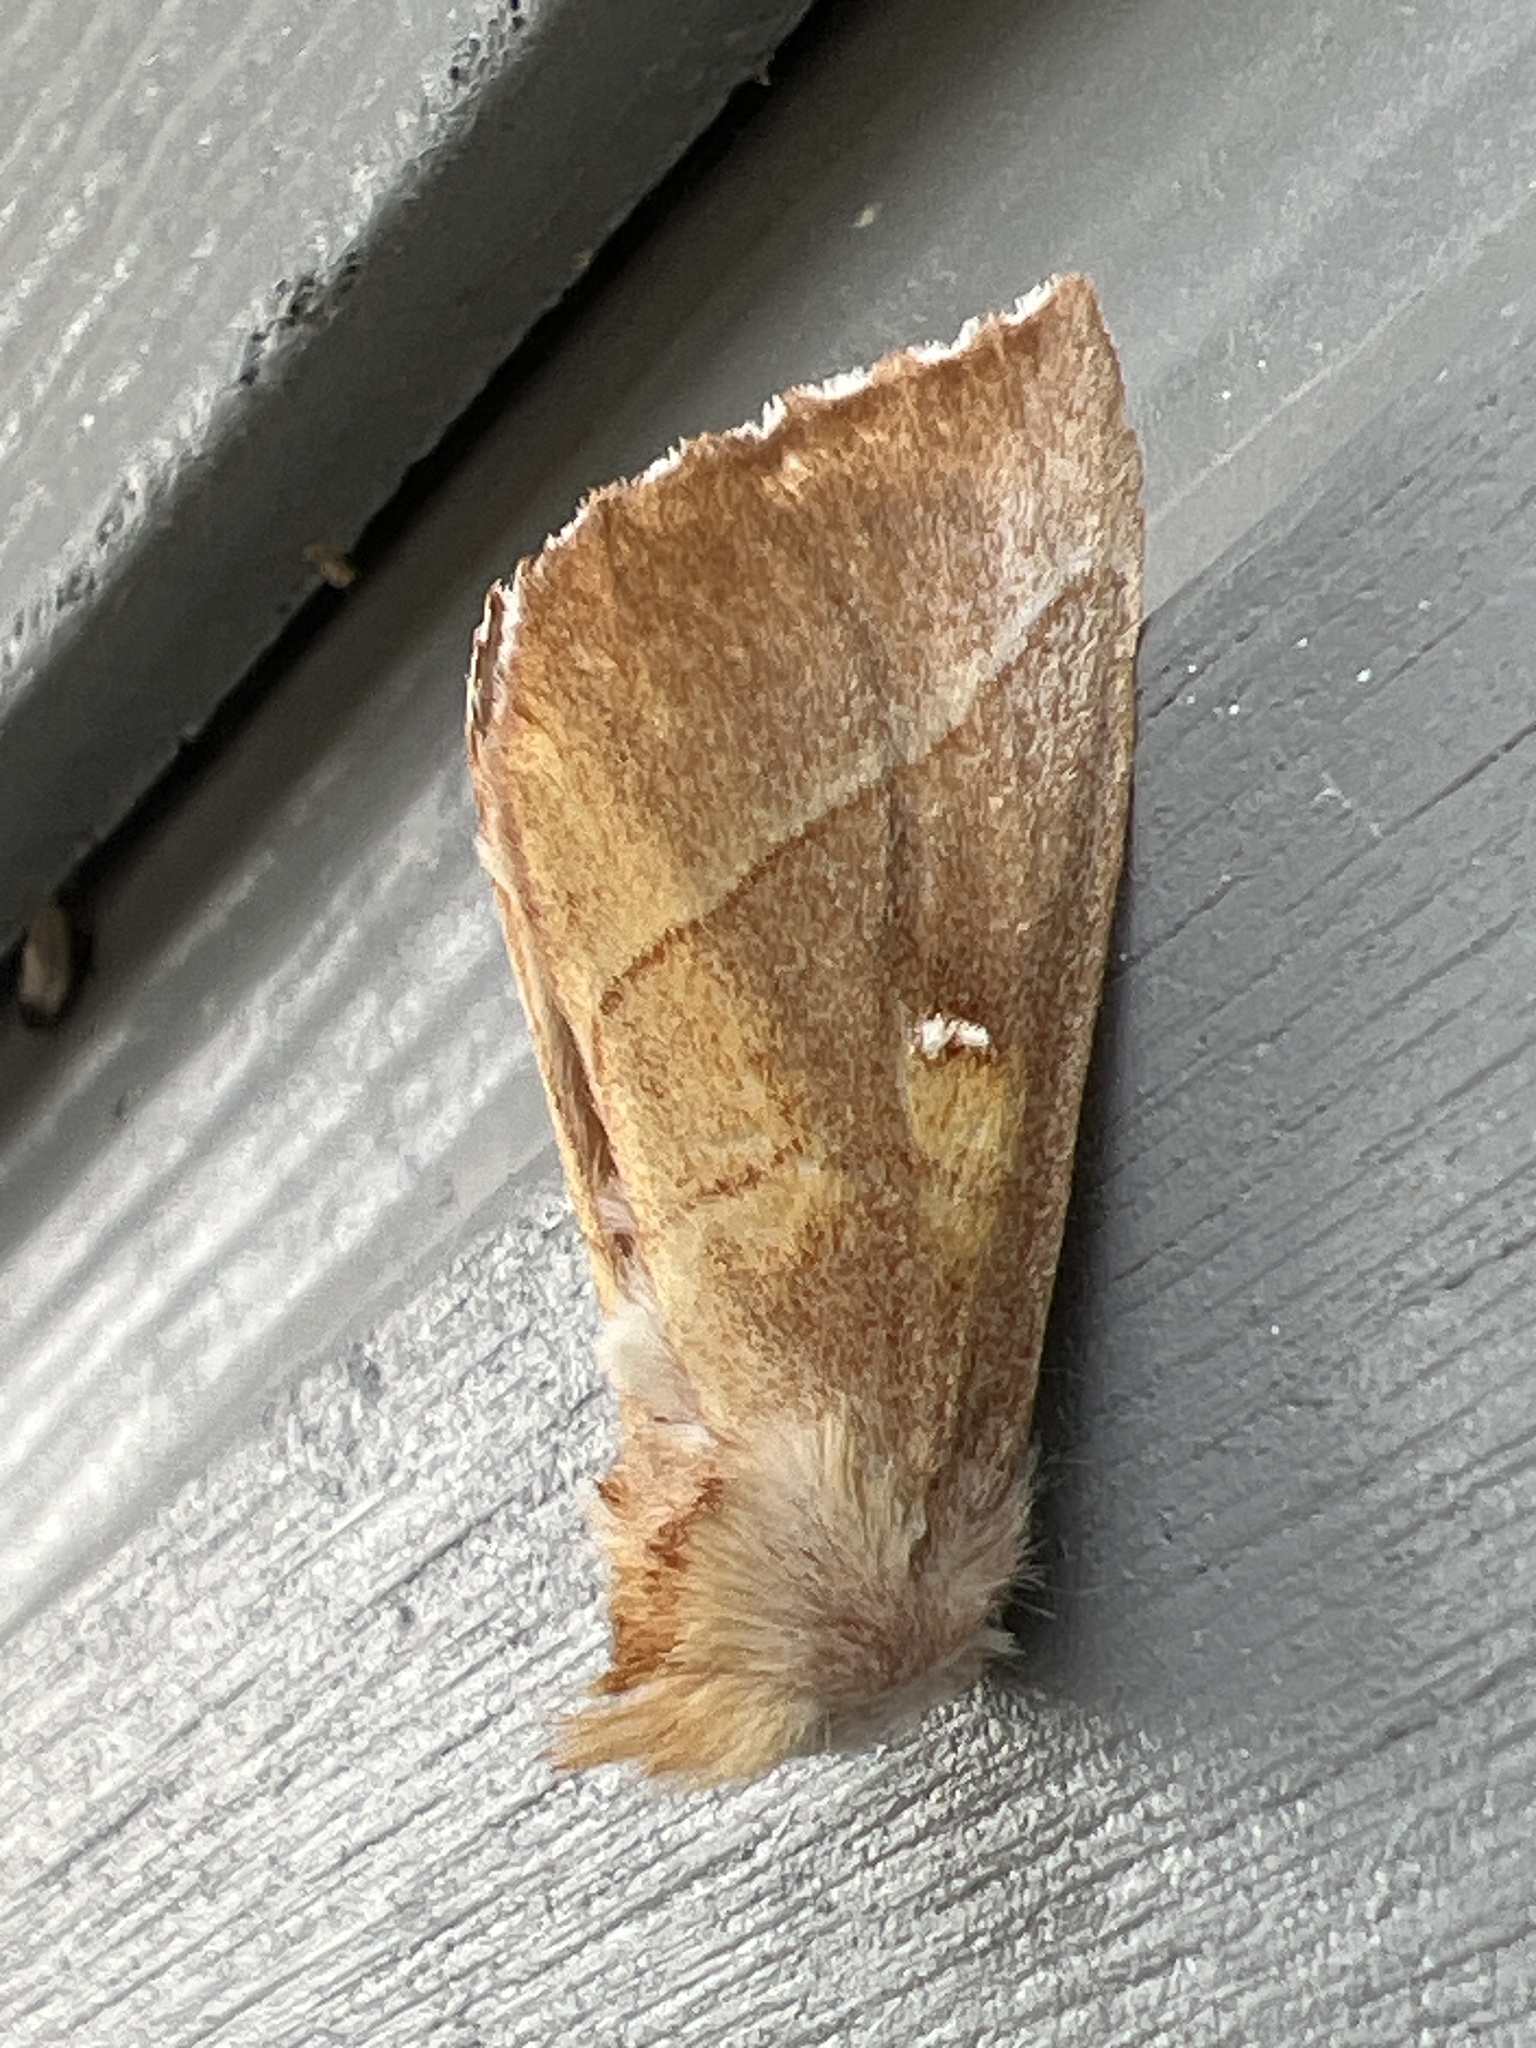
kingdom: Animalia
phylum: Arthropoda
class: Insecta
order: Lepidoptera
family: Notodontidae
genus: Nadata
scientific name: Nadata gibbosa
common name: White-dotted prominent
